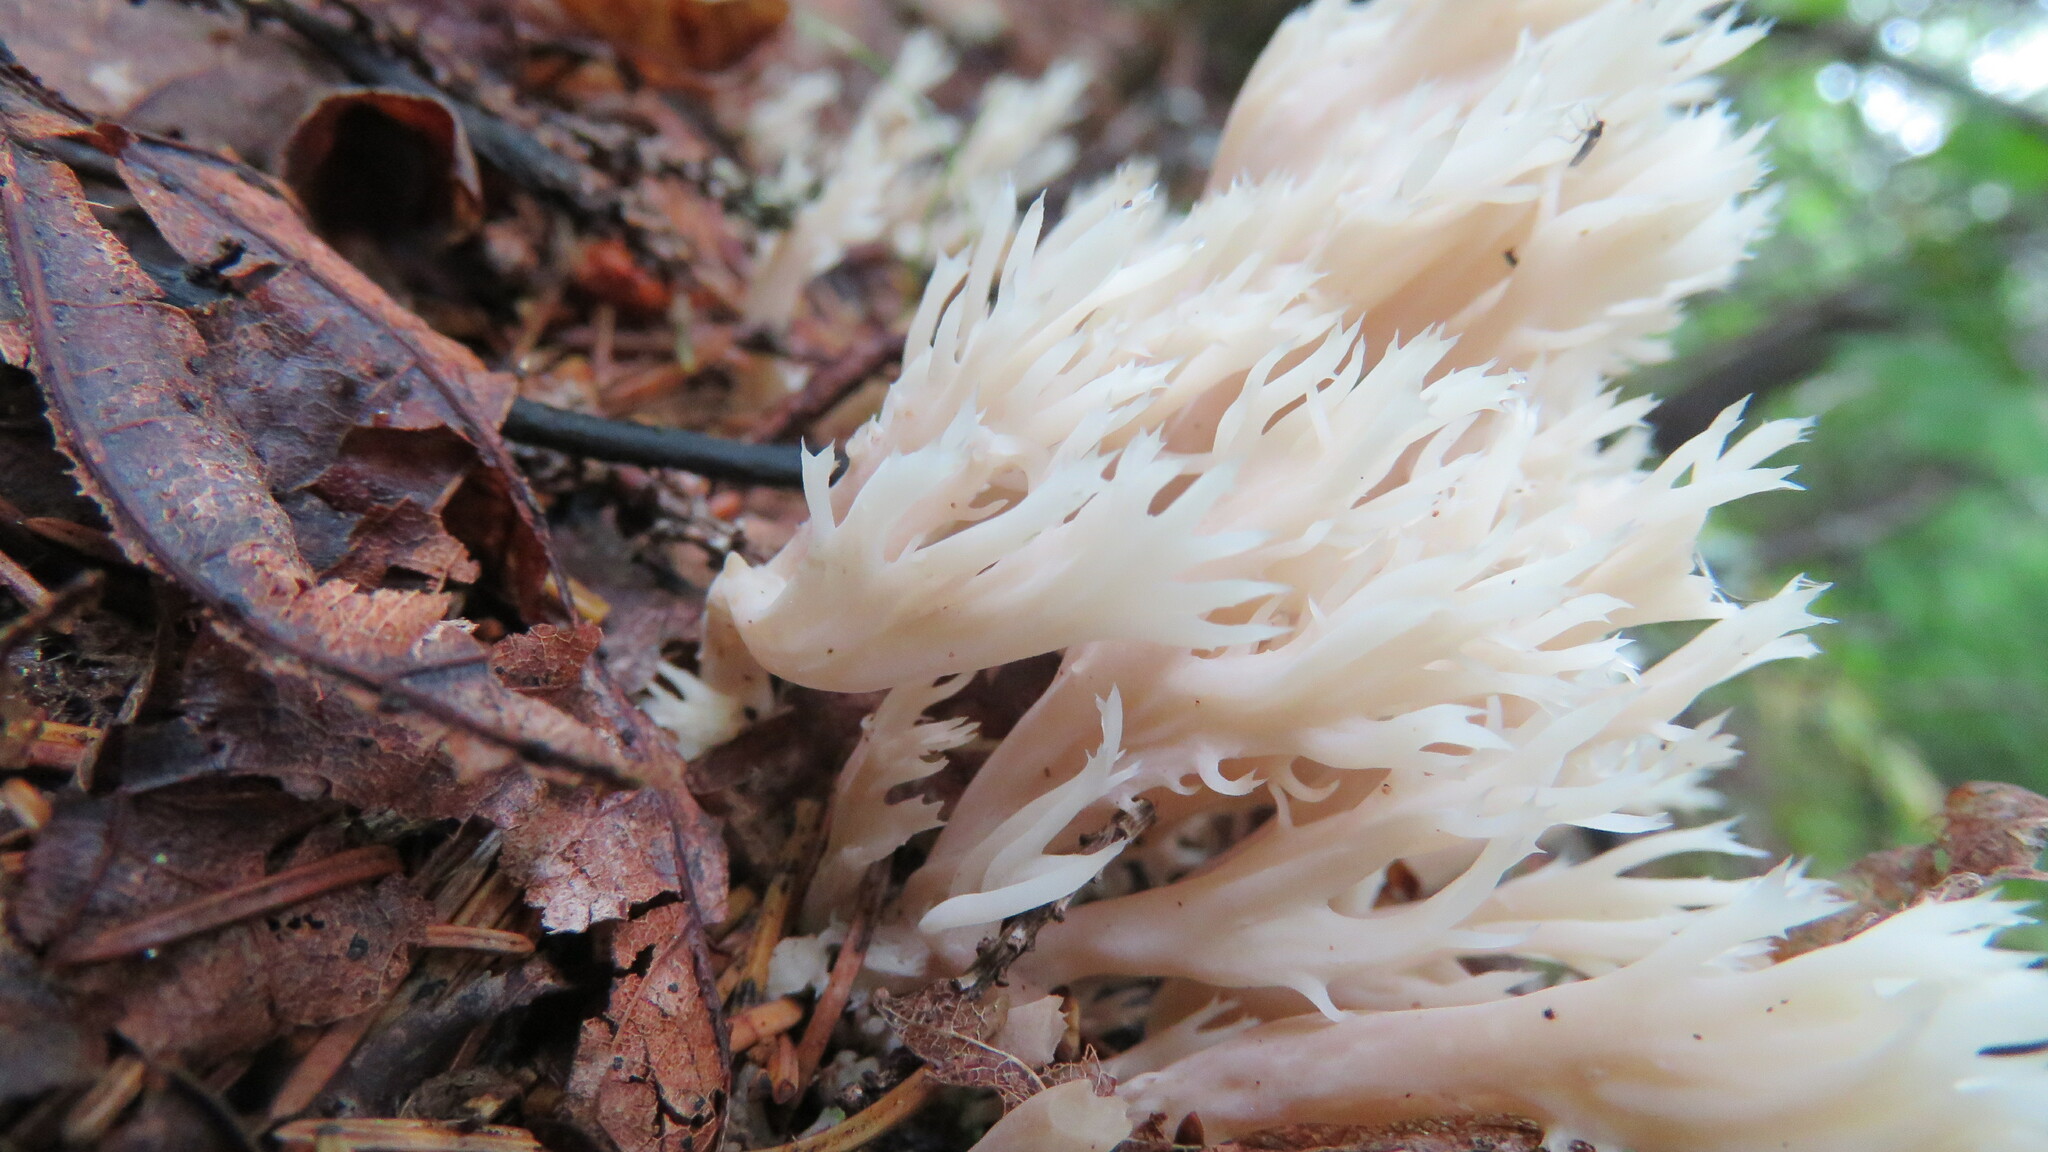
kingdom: Fungi
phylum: Basidiomycota
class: Agaricomycetes
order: Cantharellales
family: Hydnaceae
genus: Clavulina
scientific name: Clavulina coralloides
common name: Crested coral
